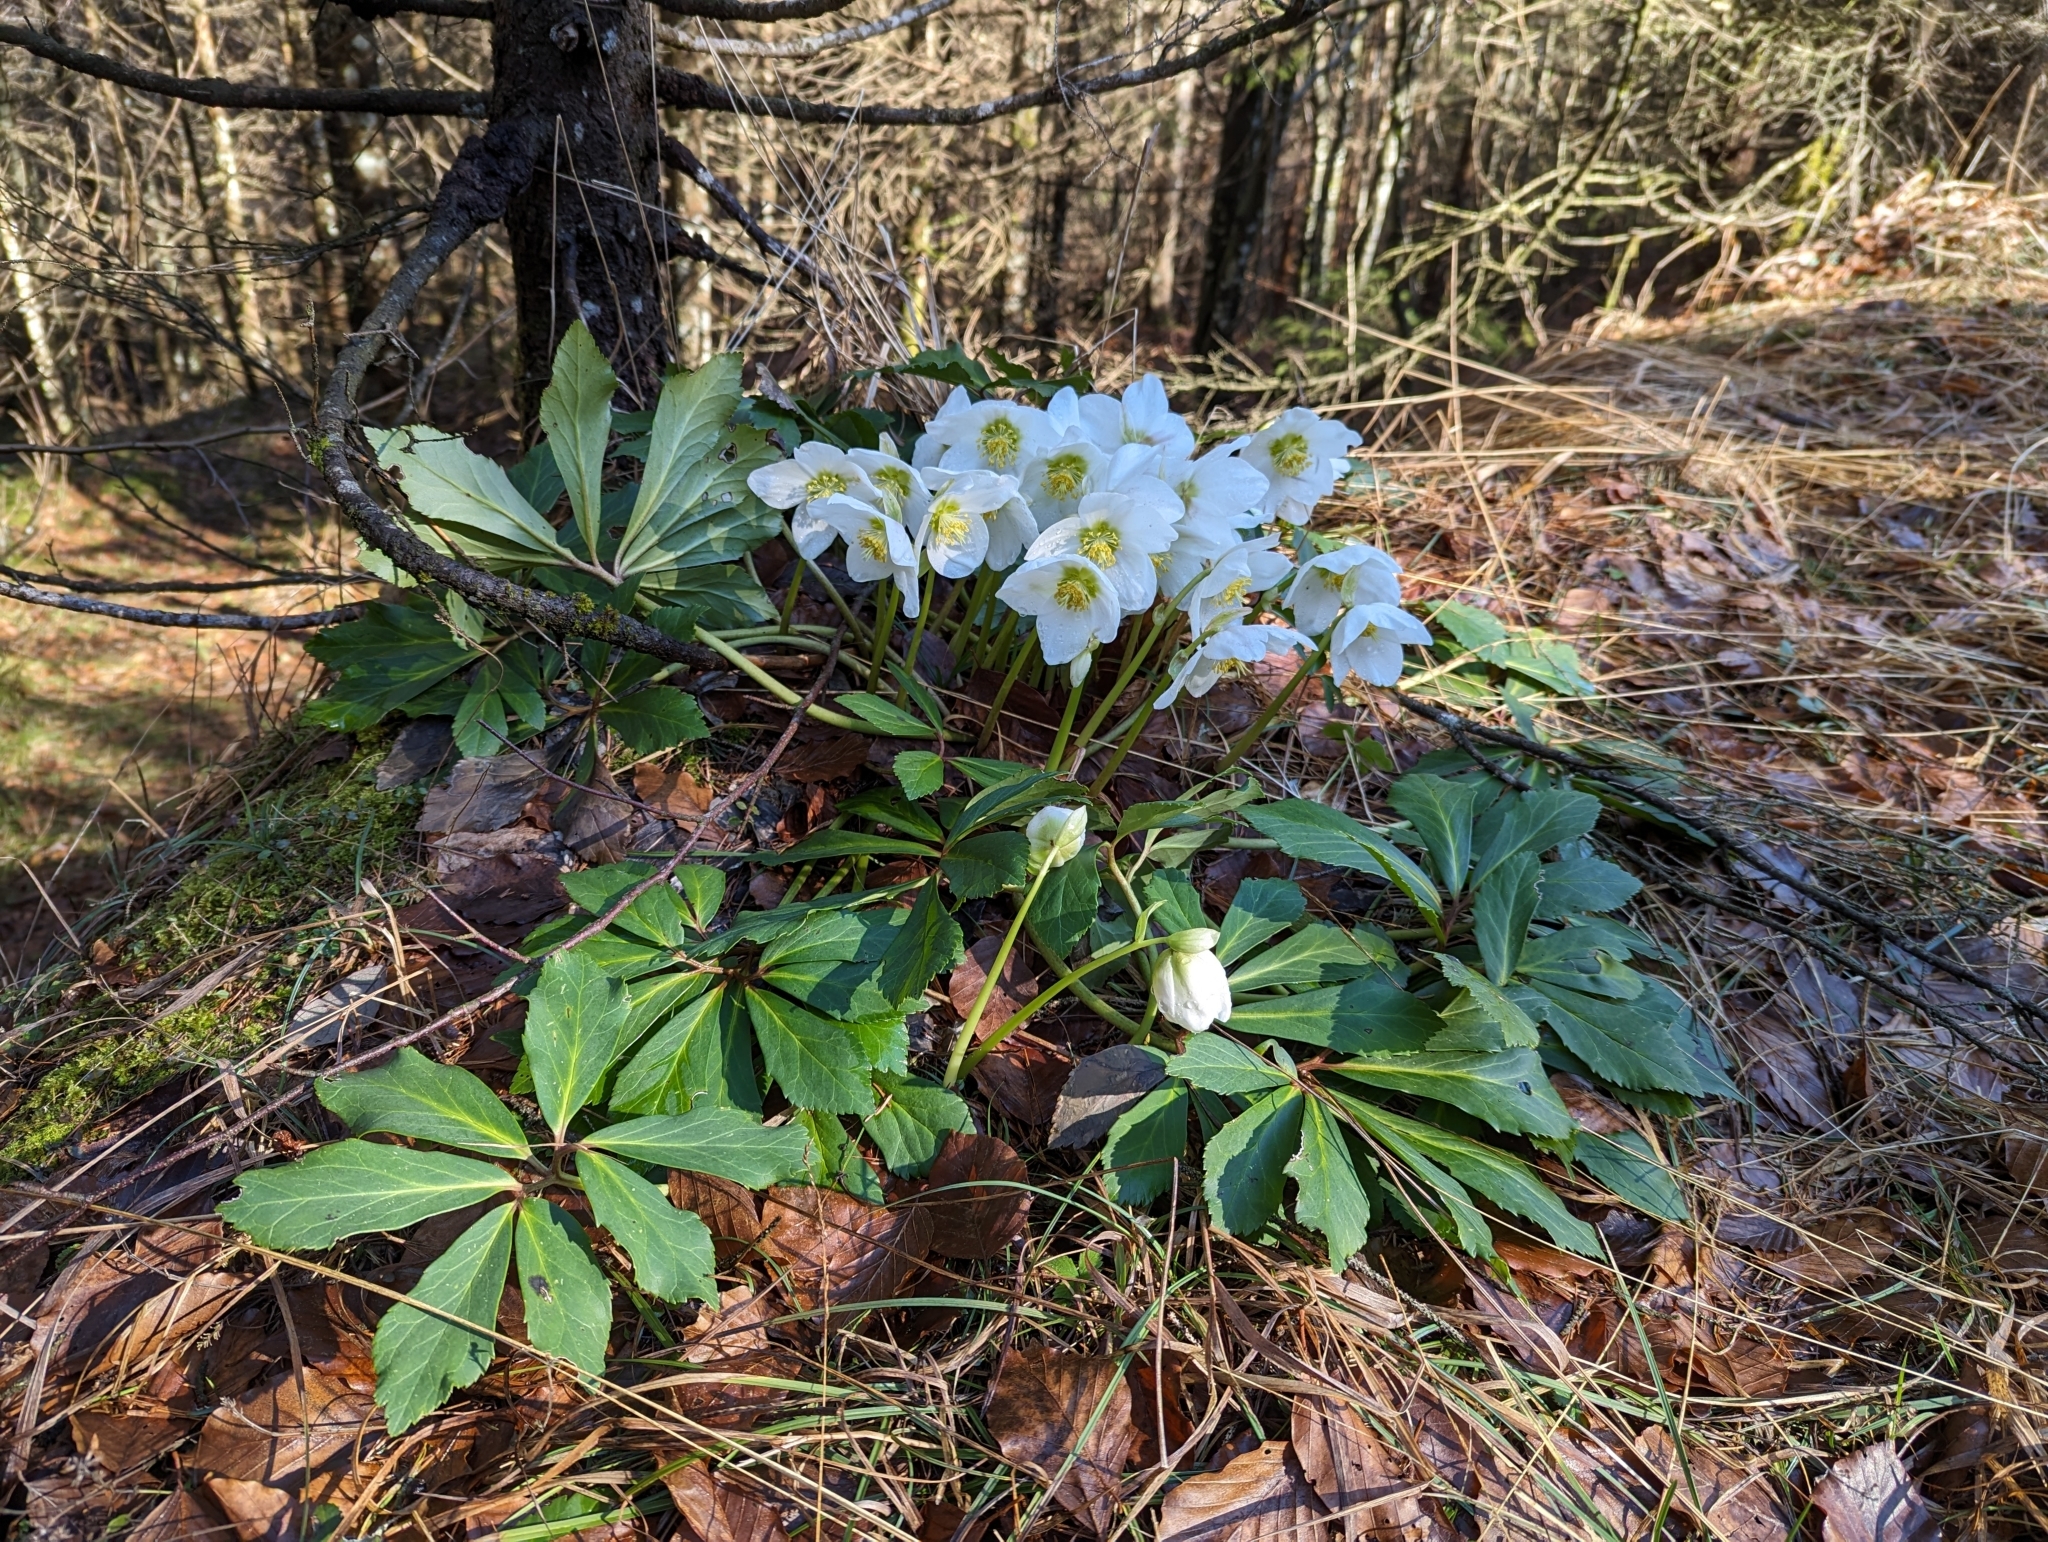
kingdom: Plantae
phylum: Tracheophyta
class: Magnoliopsida
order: Ranunculales
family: Ranunculaceae
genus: Helleborus
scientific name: Helleborus niger
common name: Black hellebore
